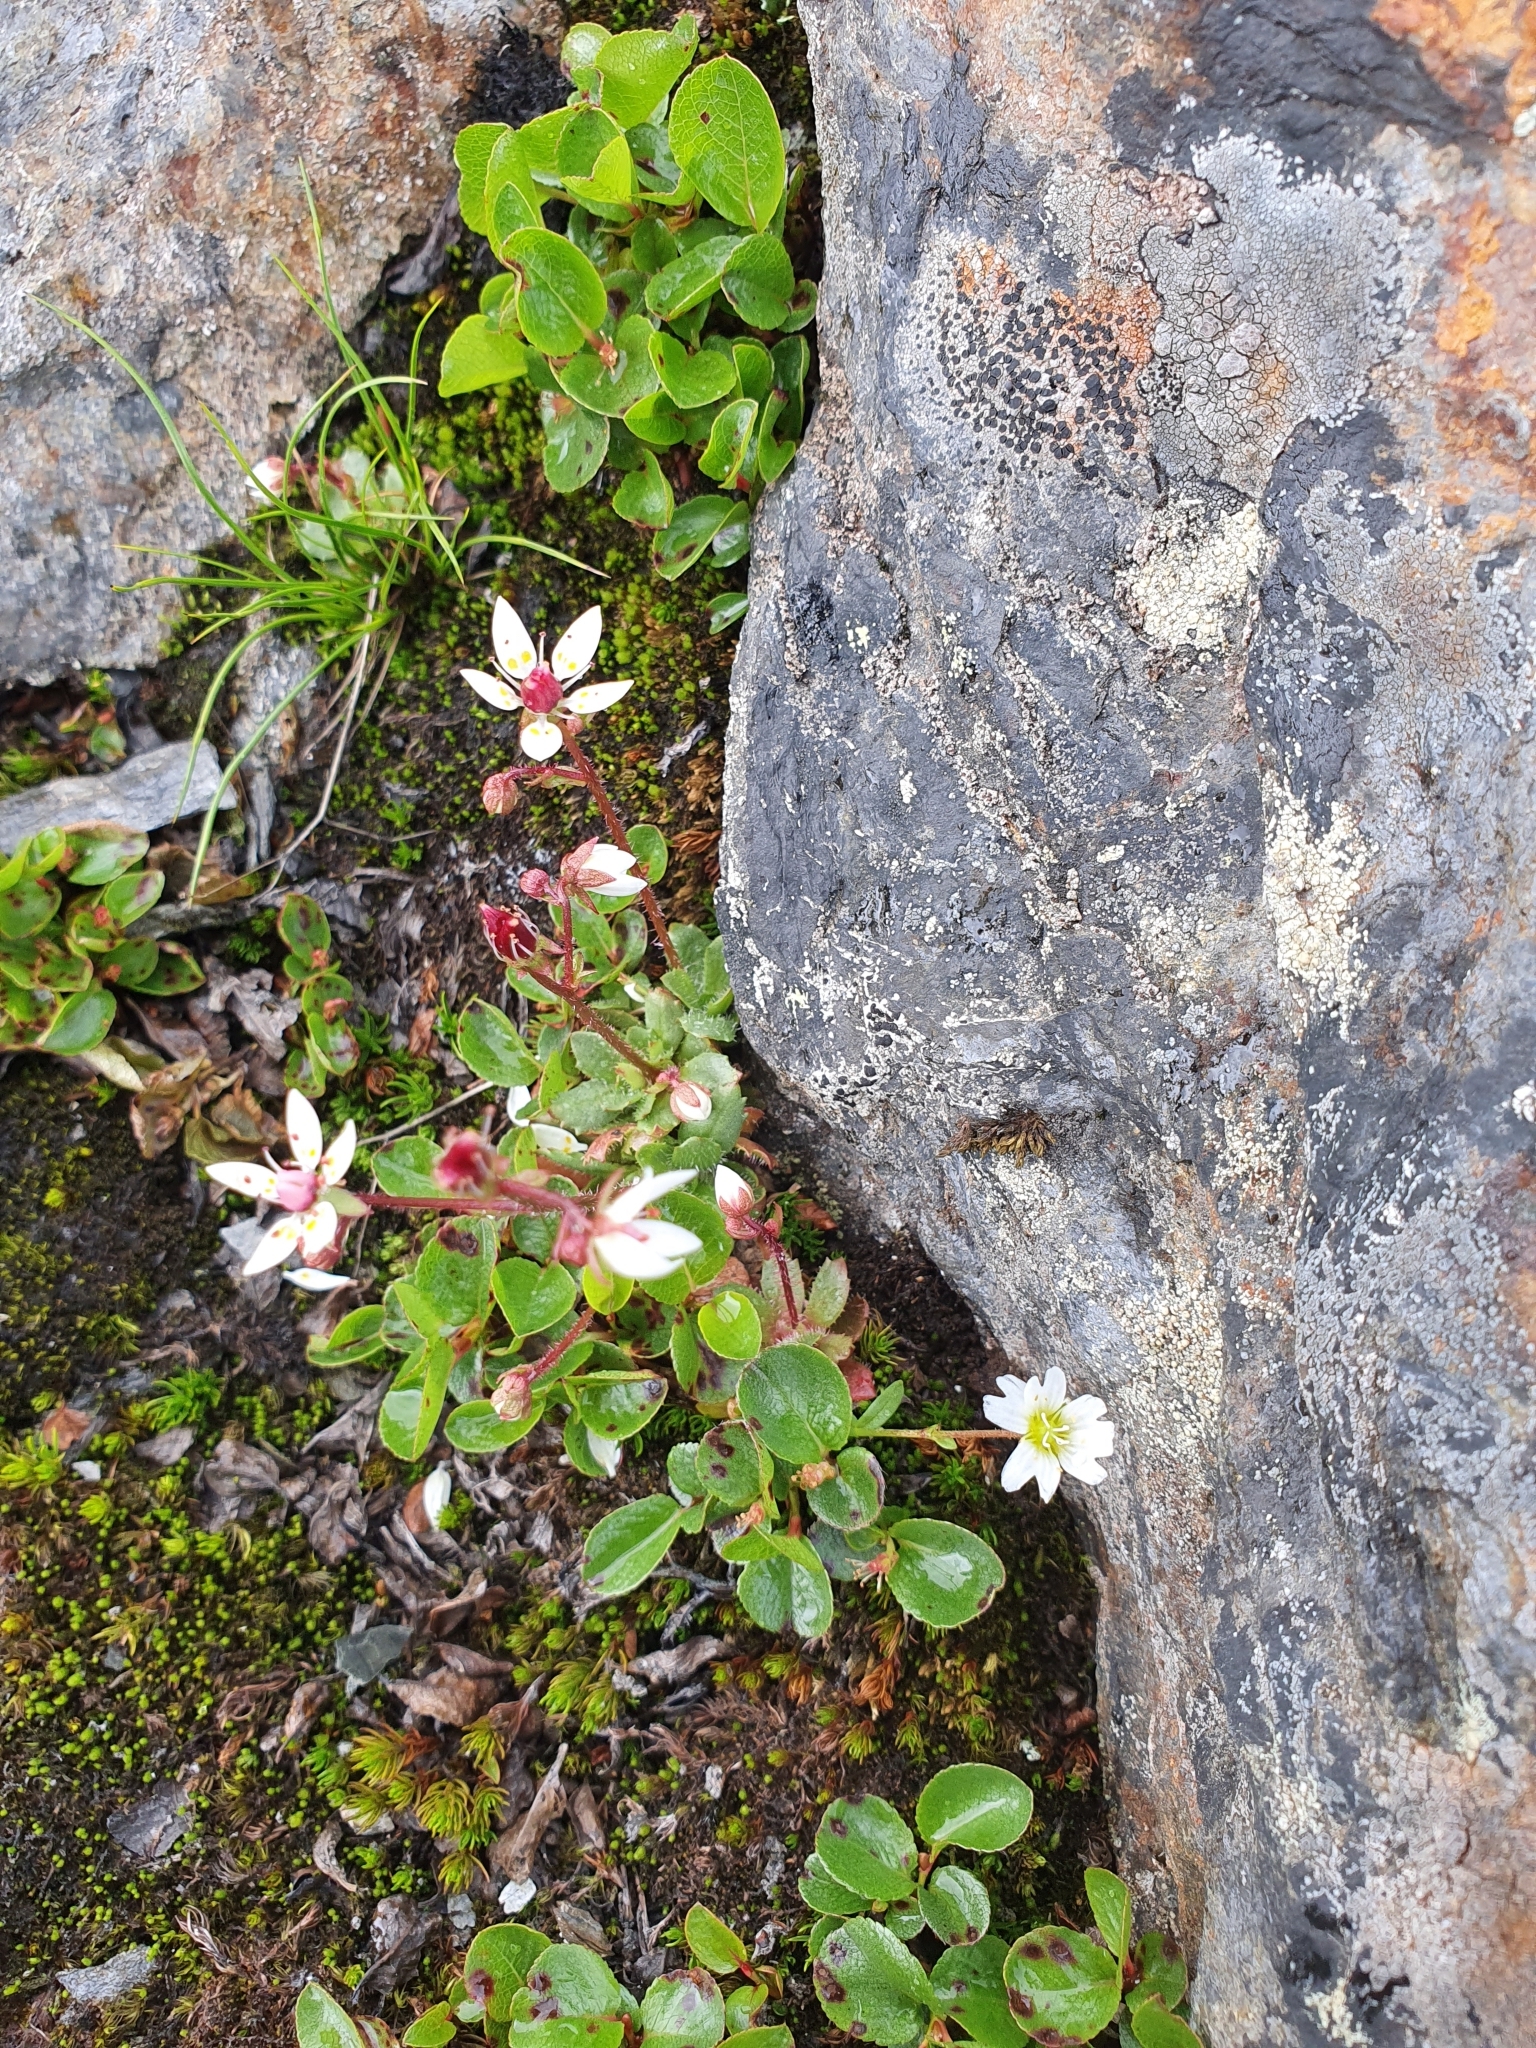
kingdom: Plantae
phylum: Tracheophyta
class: Magnoliopsida
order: Saxifragales
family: Saxifragaceae
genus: Micranthes
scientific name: Micranthes stellaris
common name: Starry saxifrage
